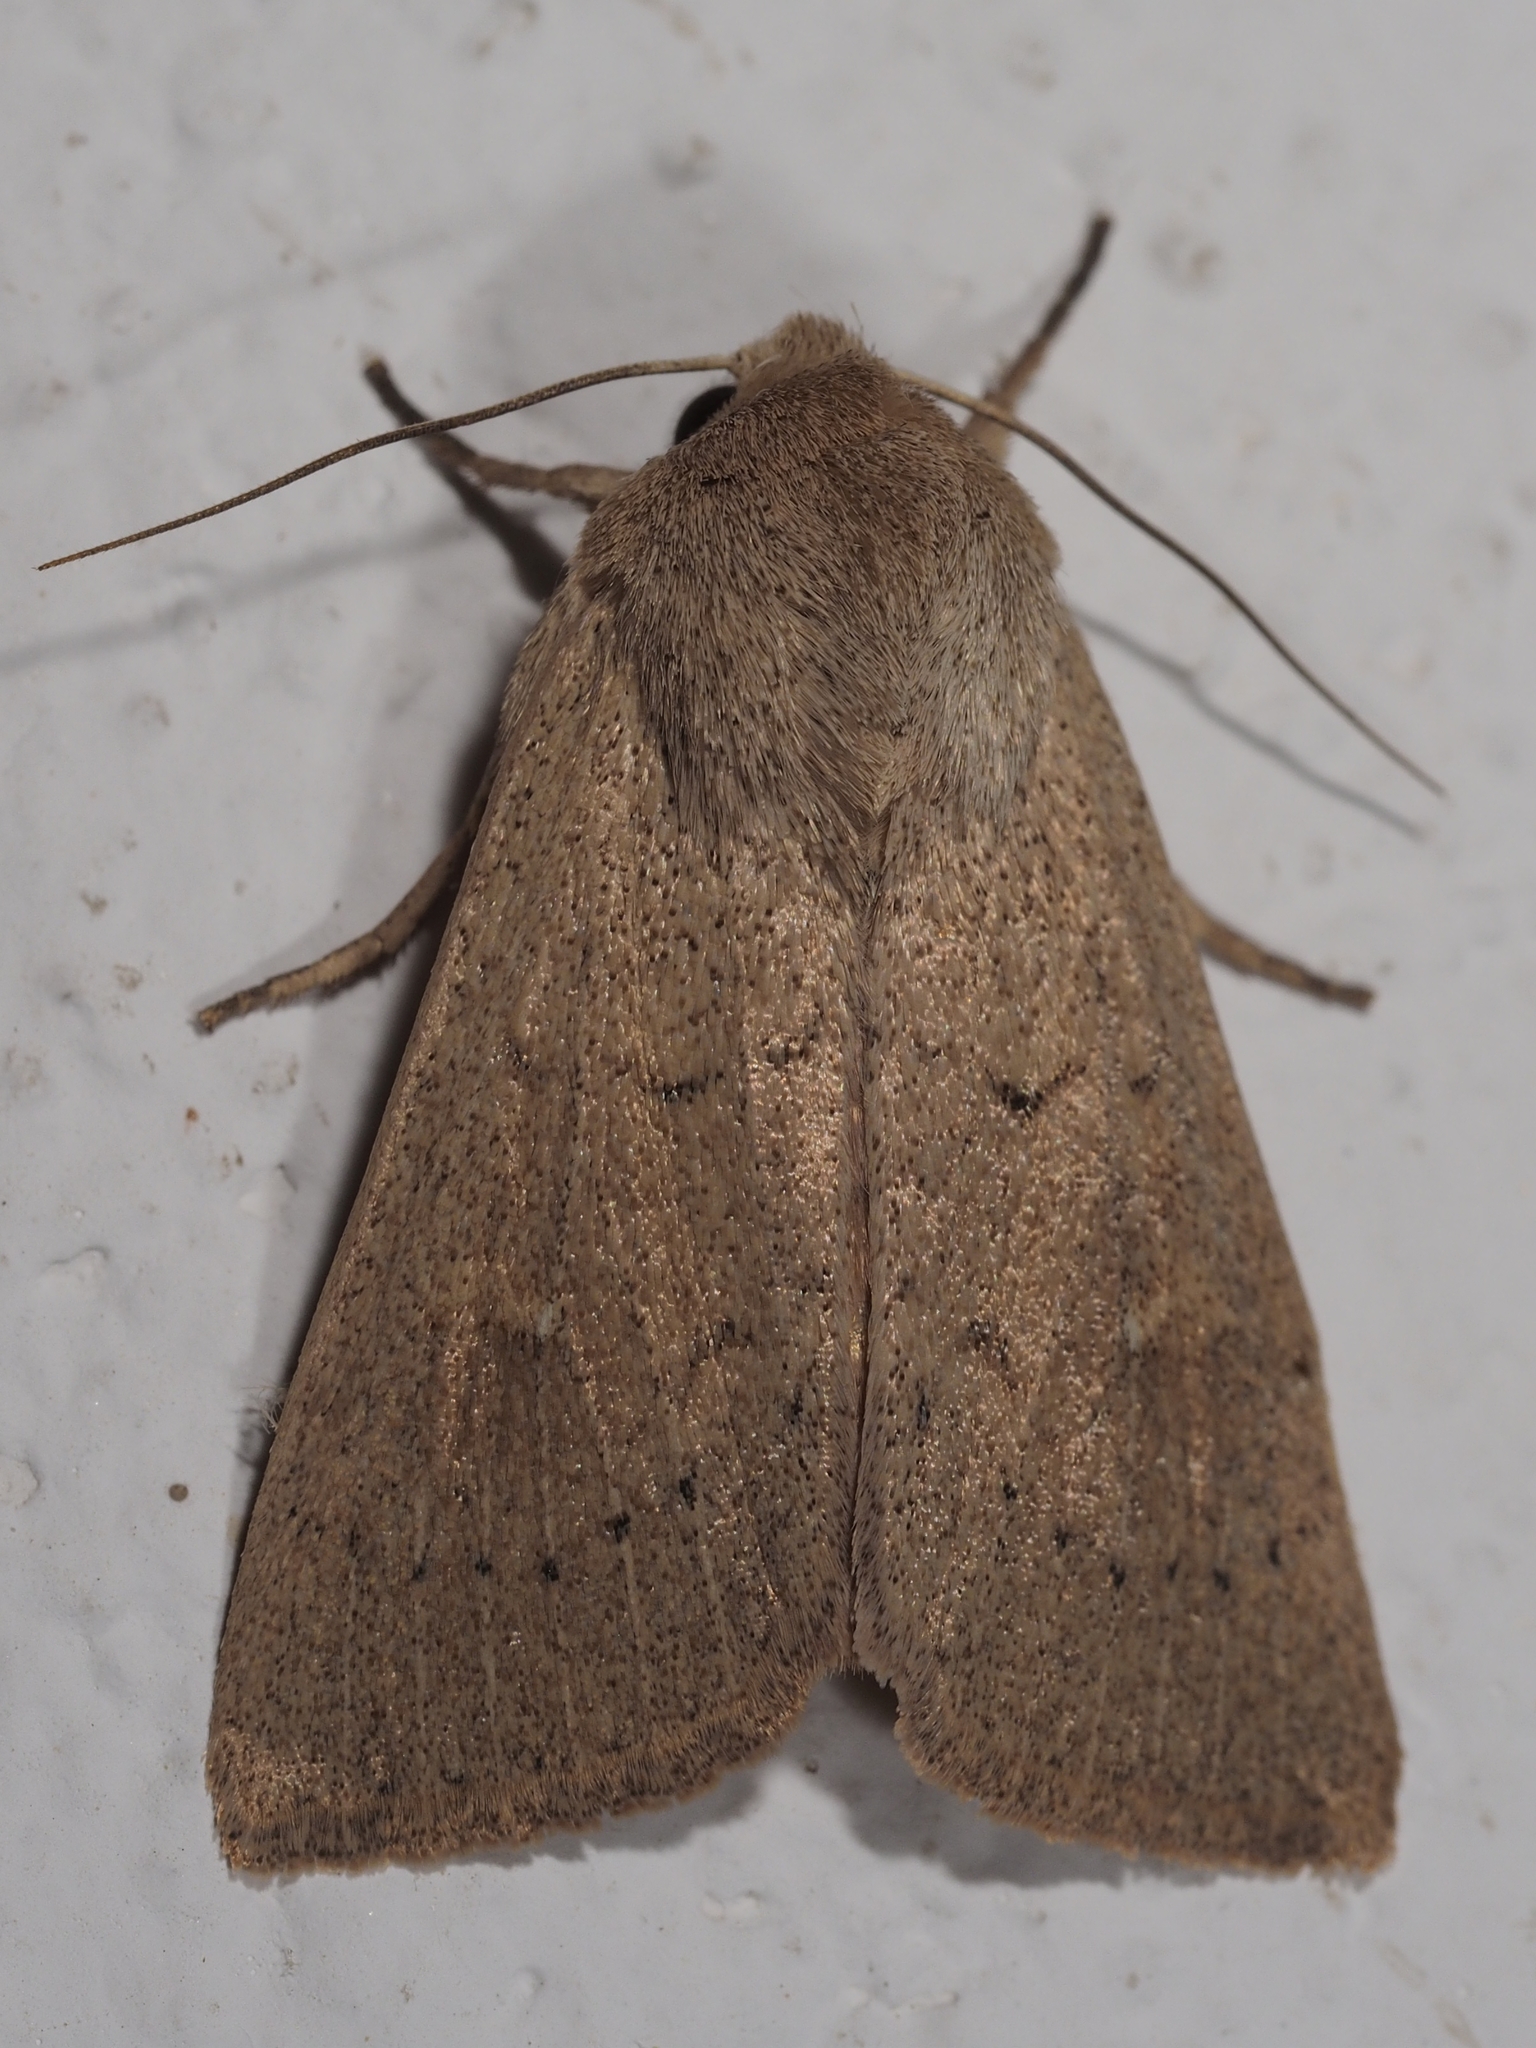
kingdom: Animalia
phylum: Arthropoda
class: Insecta
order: Lepidoptera
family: Noctuidae
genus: Mythimna
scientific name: Mythimna ferrago
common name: Clay
